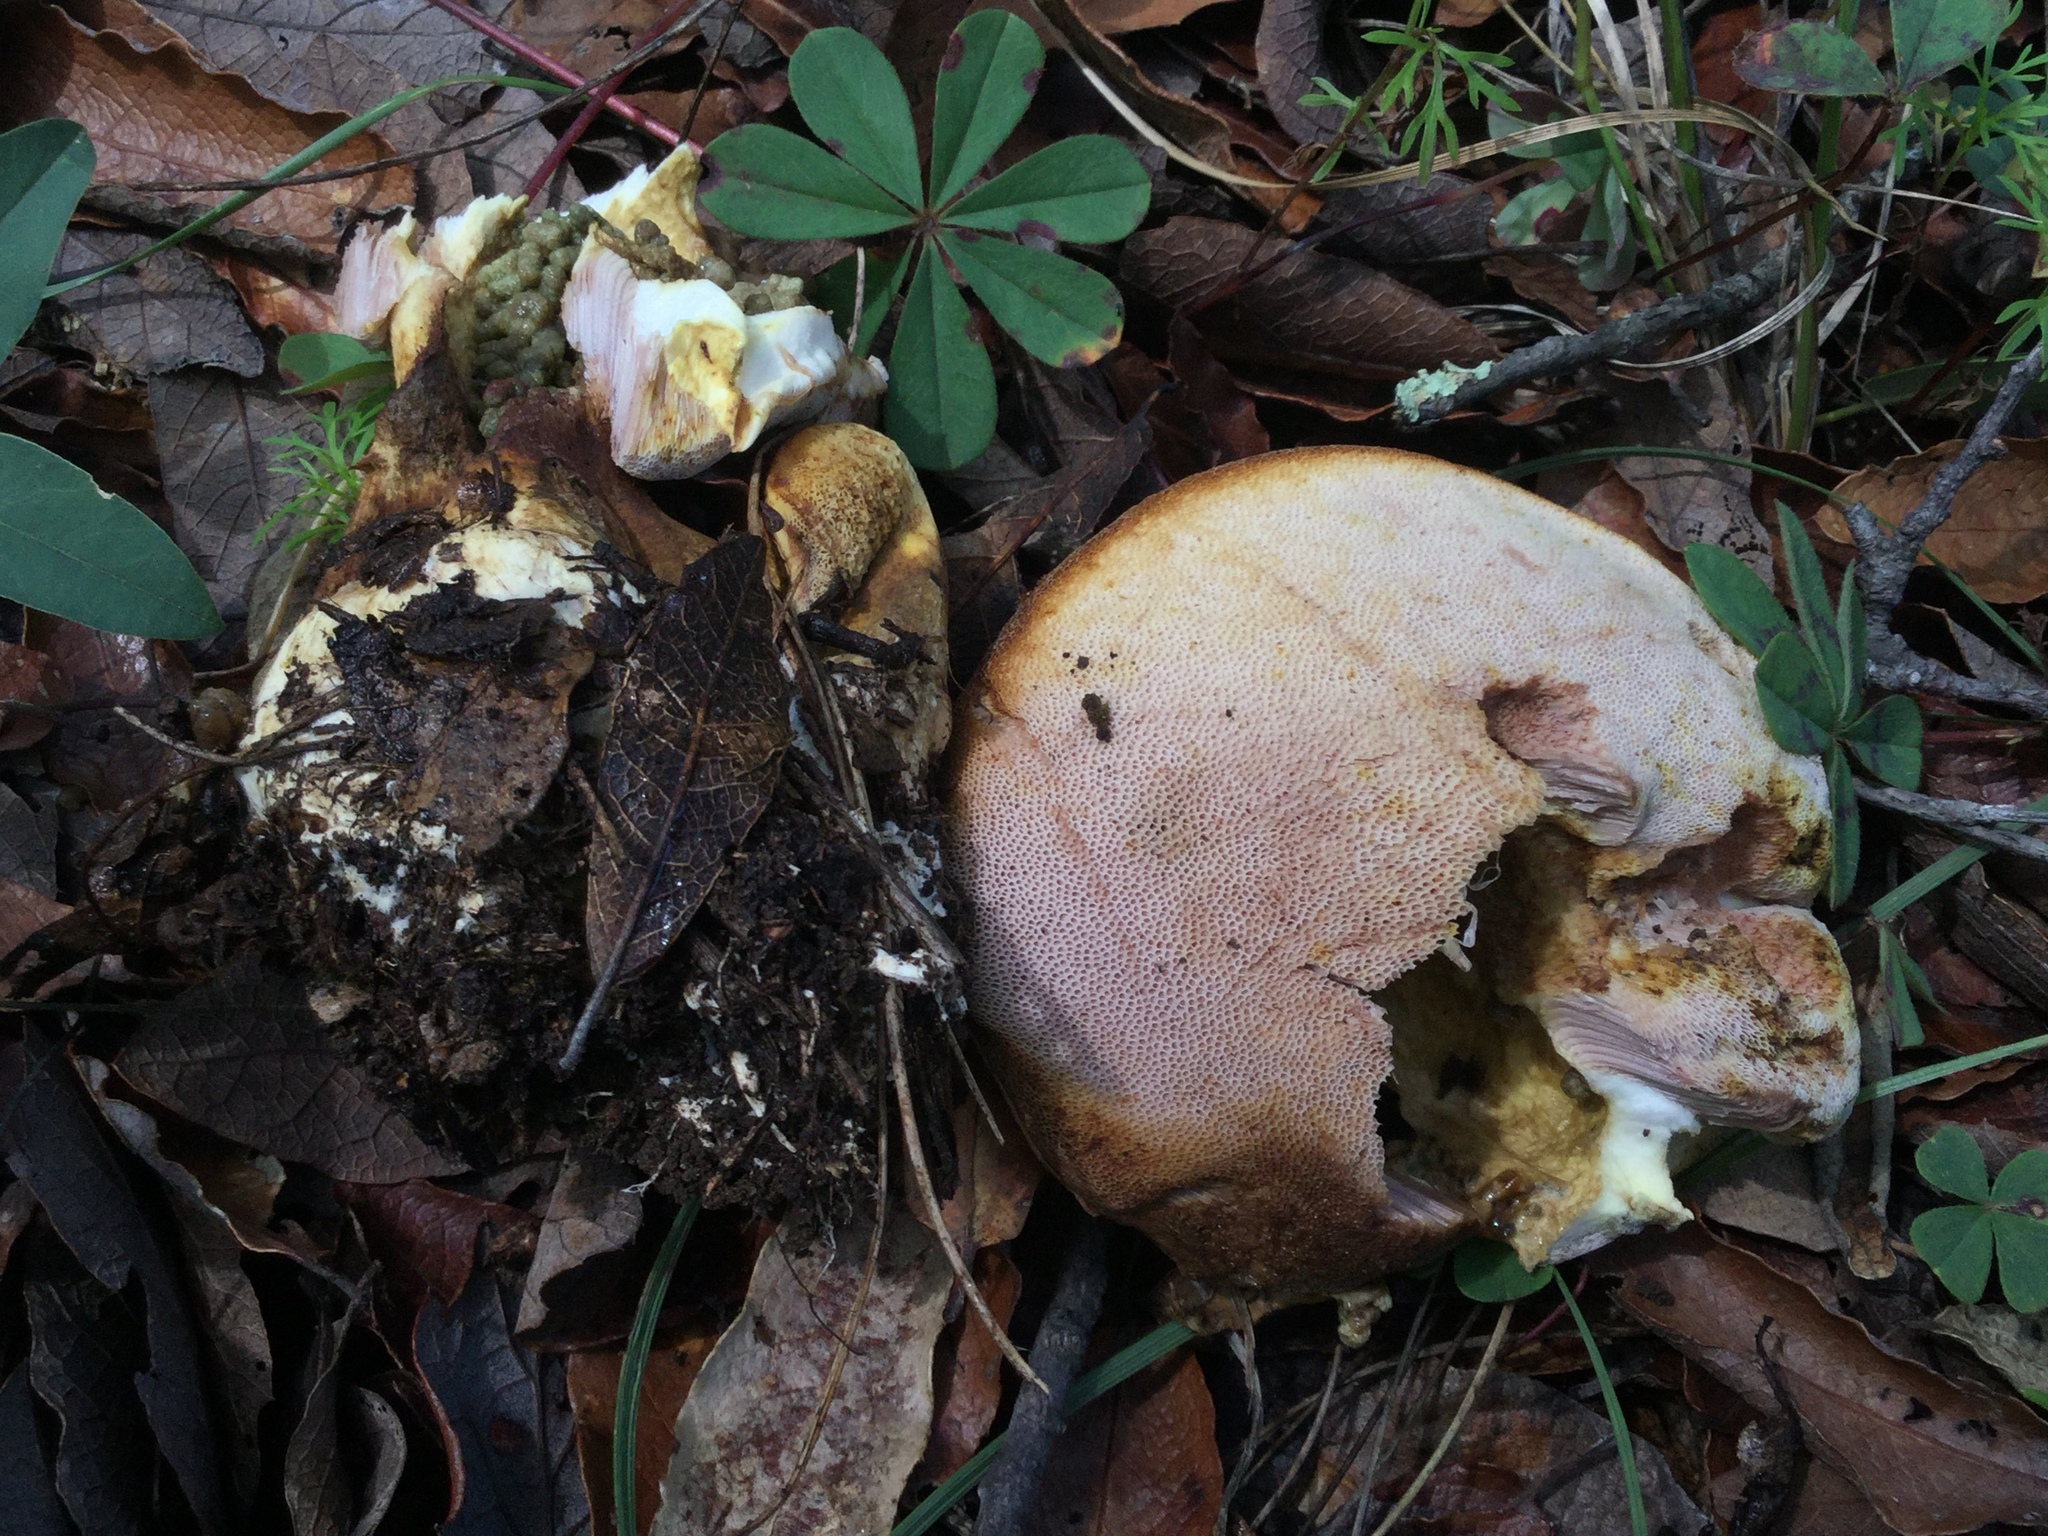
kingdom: Fungi
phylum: Basidiomycota
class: Agaricomycetes
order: Boletales
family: Boletaceae
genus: Fistulinella
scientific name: Fistulinella wolfeana
